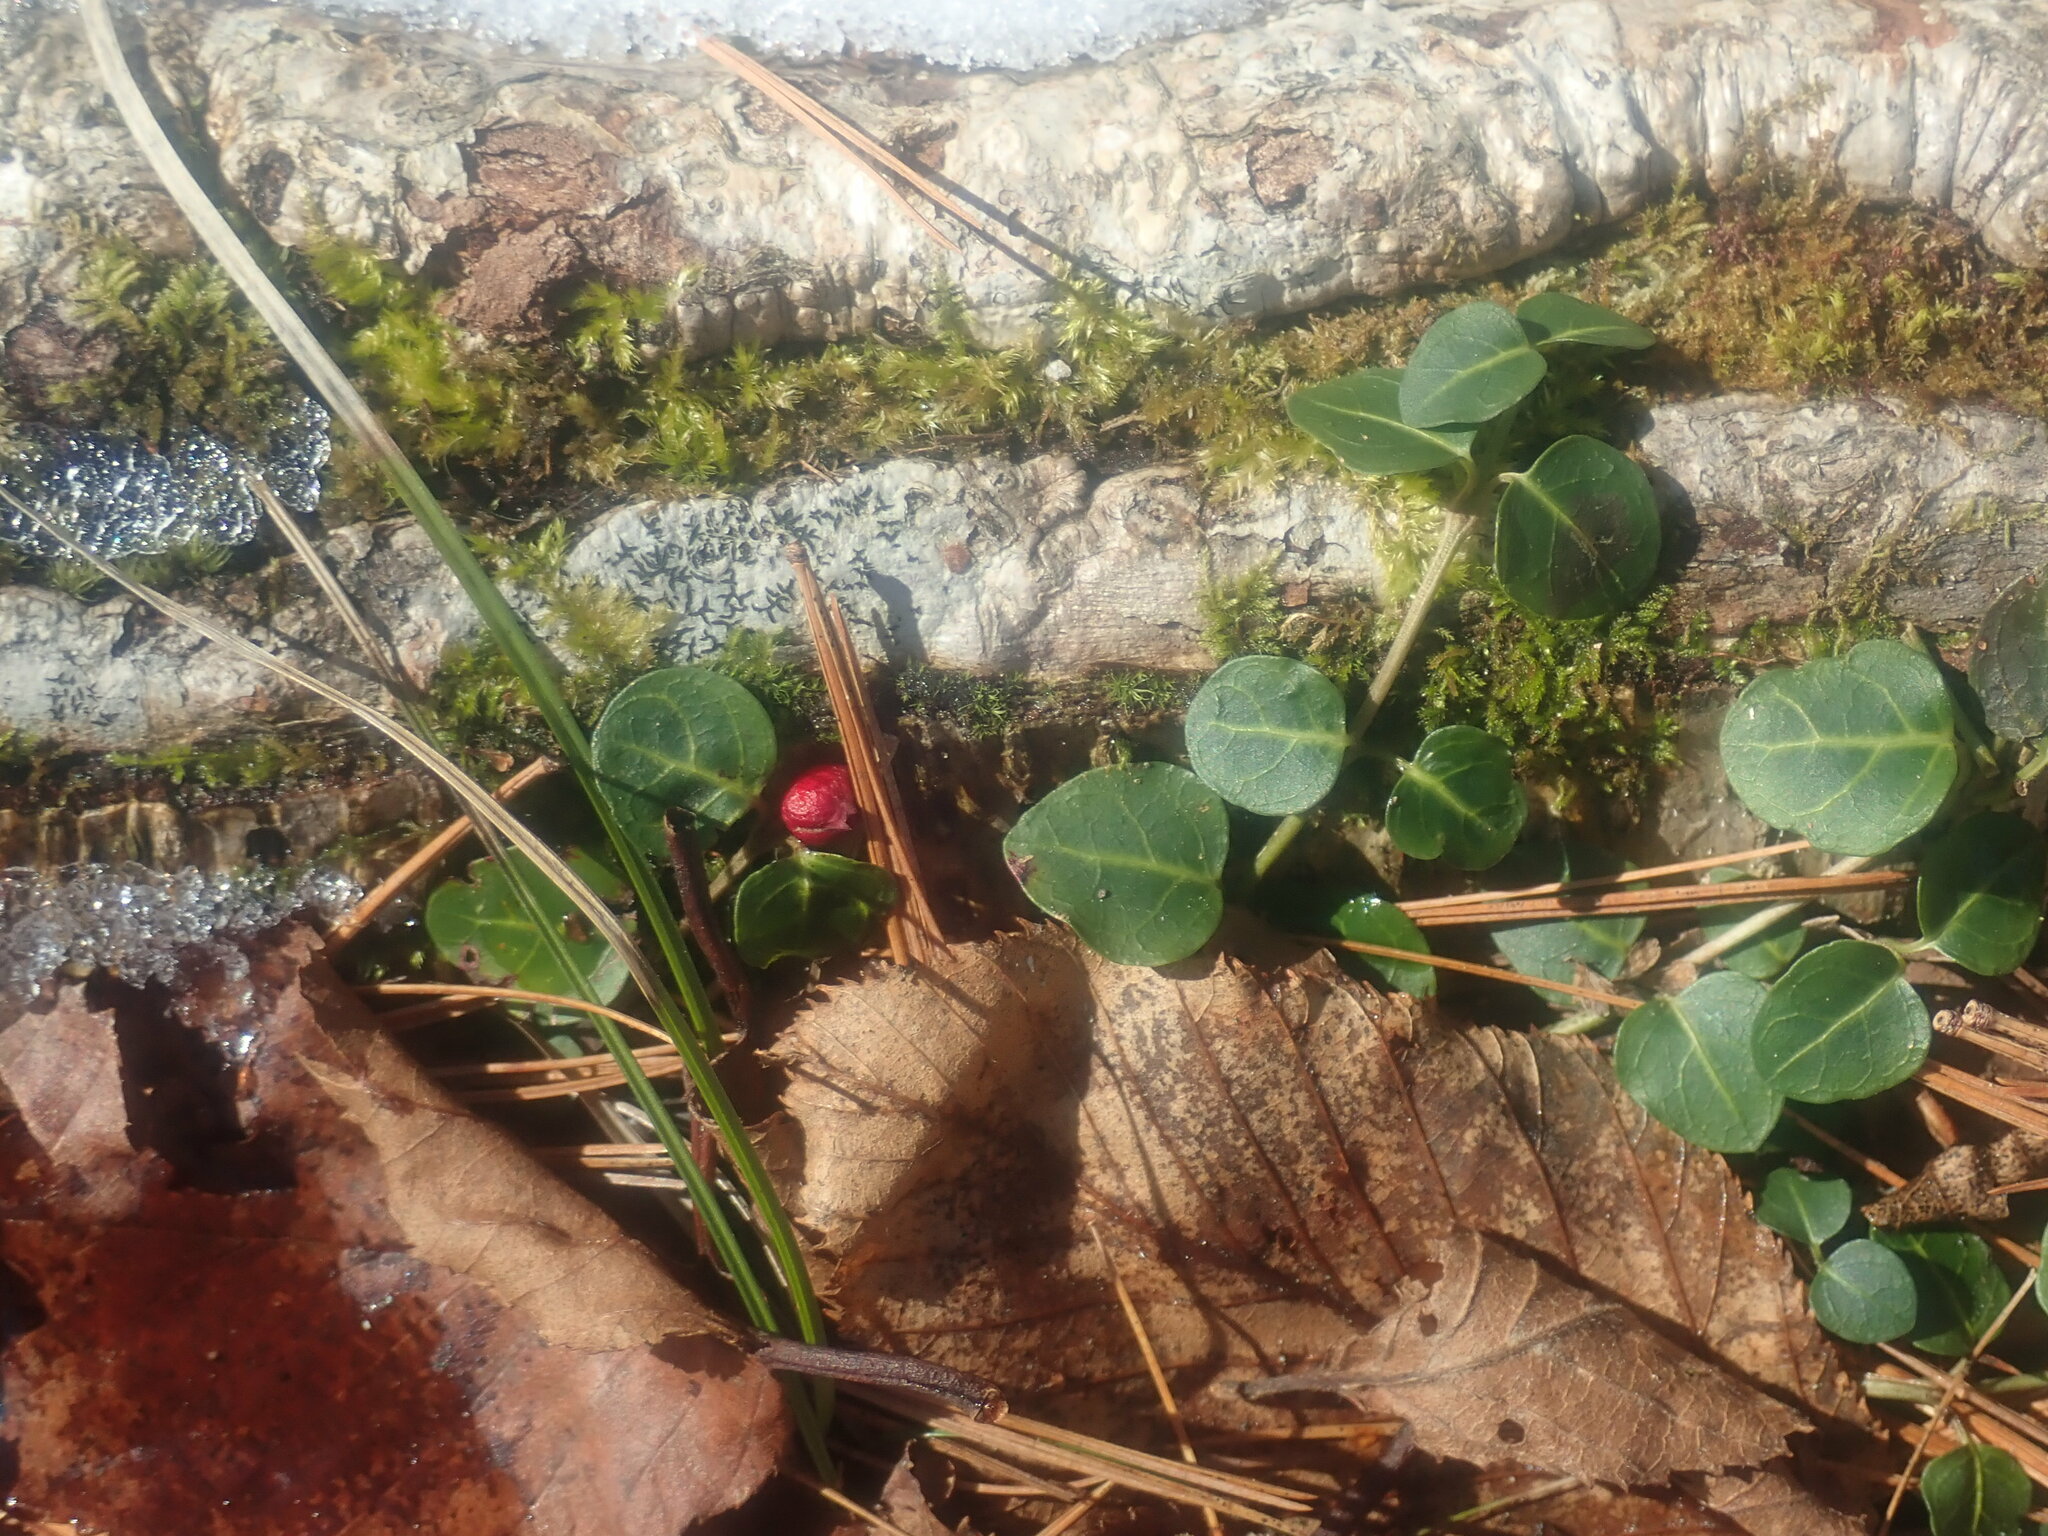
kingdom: Plantae
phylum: Tracheophyta
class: Magnoliopsida
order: Gentianales
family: Rubiaceae
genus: Mitchella
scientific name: Mitchella repens
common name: Partridge-berry
